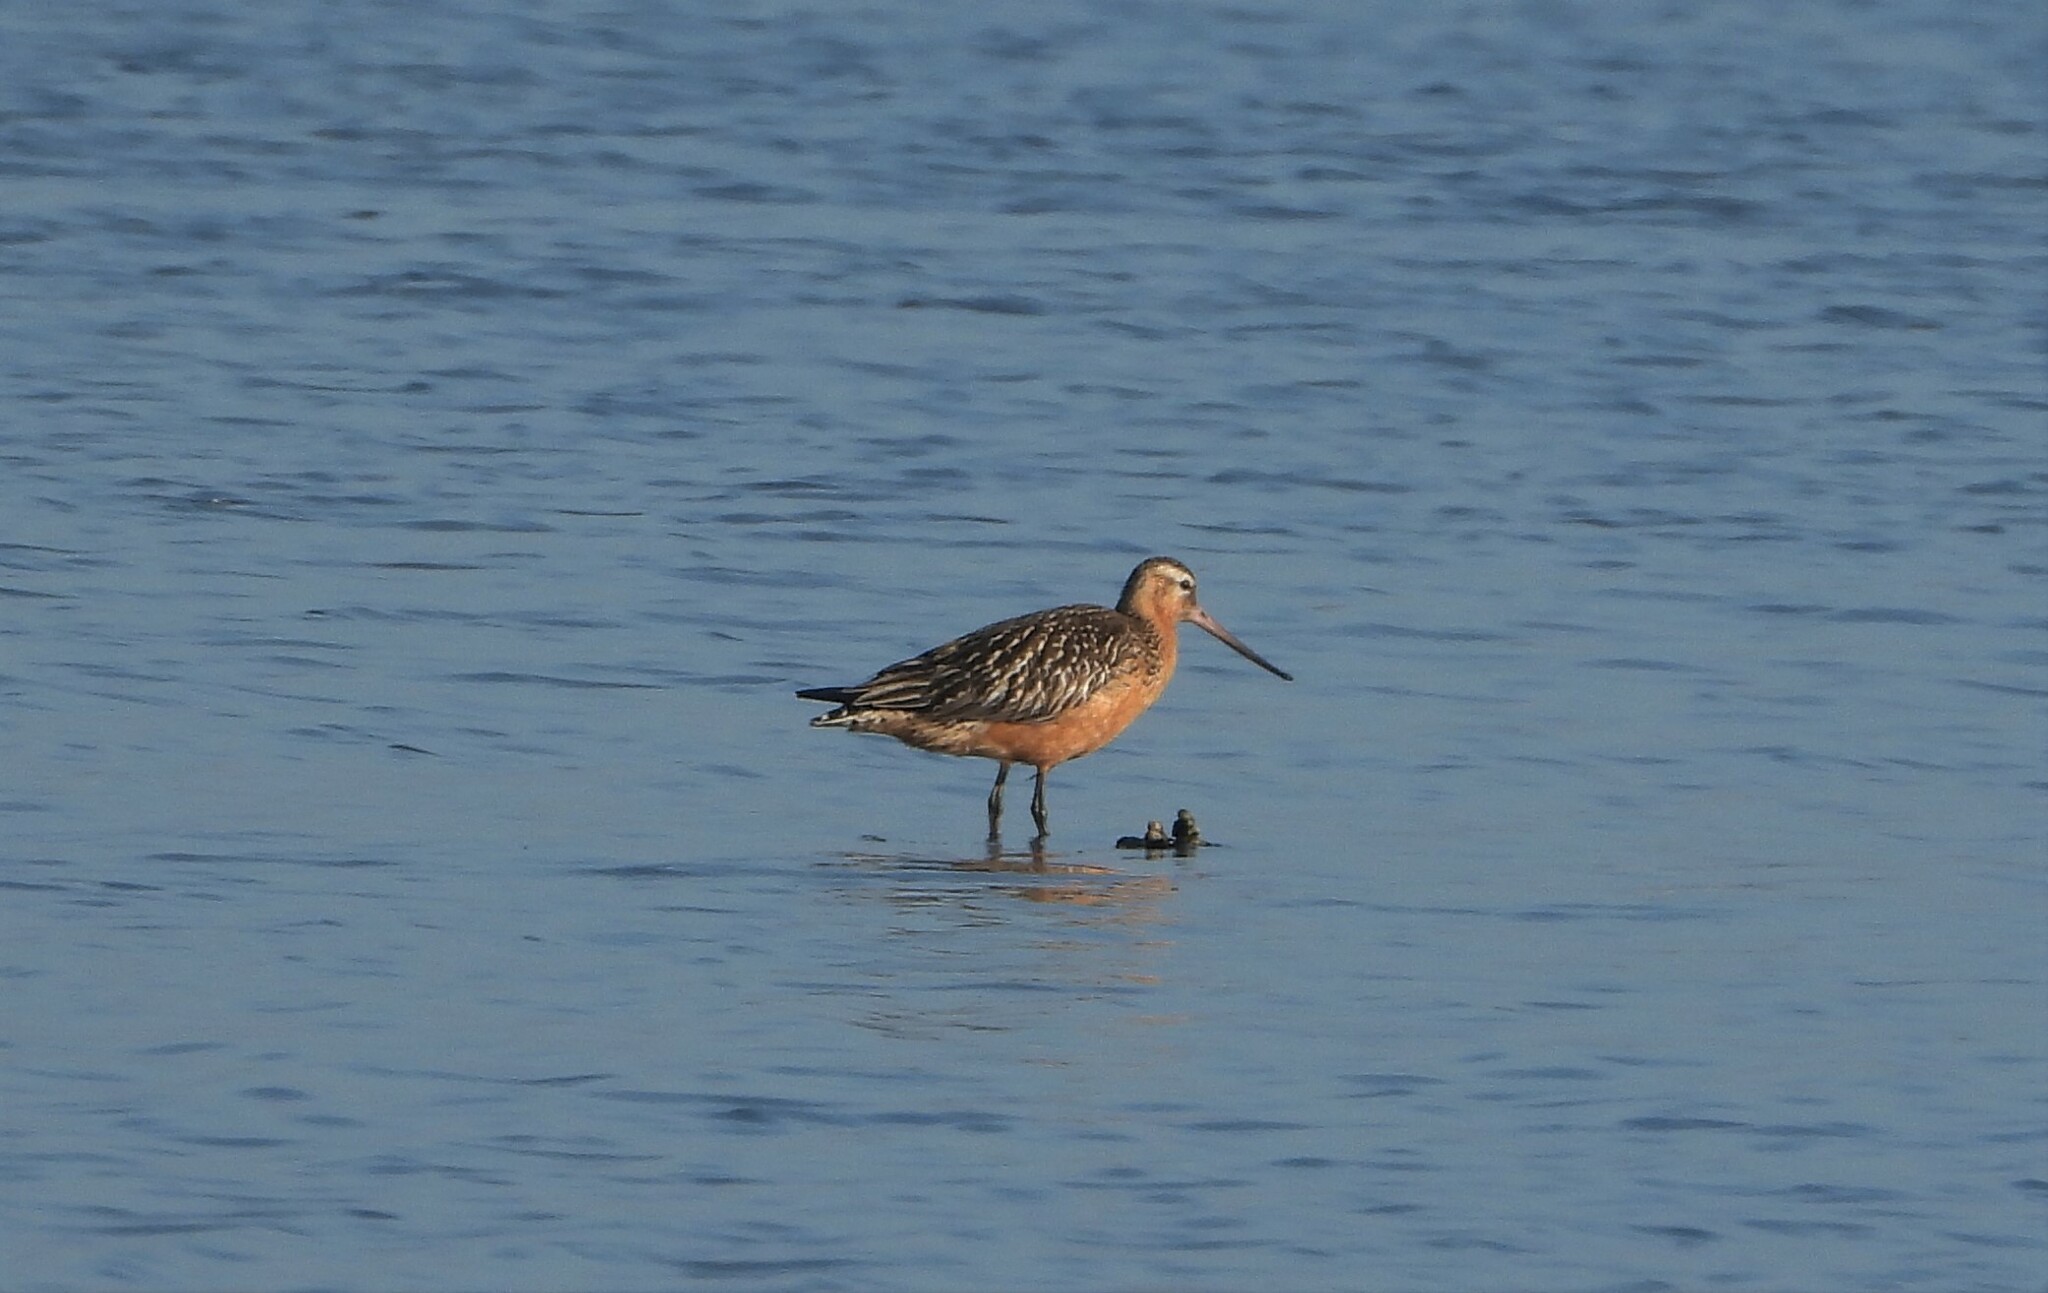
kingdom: Animalia
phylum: Chordata
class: Aves
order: Charadriiformes
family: Scolopacidae
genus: Limosa
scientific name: Limosa lapponica
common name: Bar-tailed godwit
